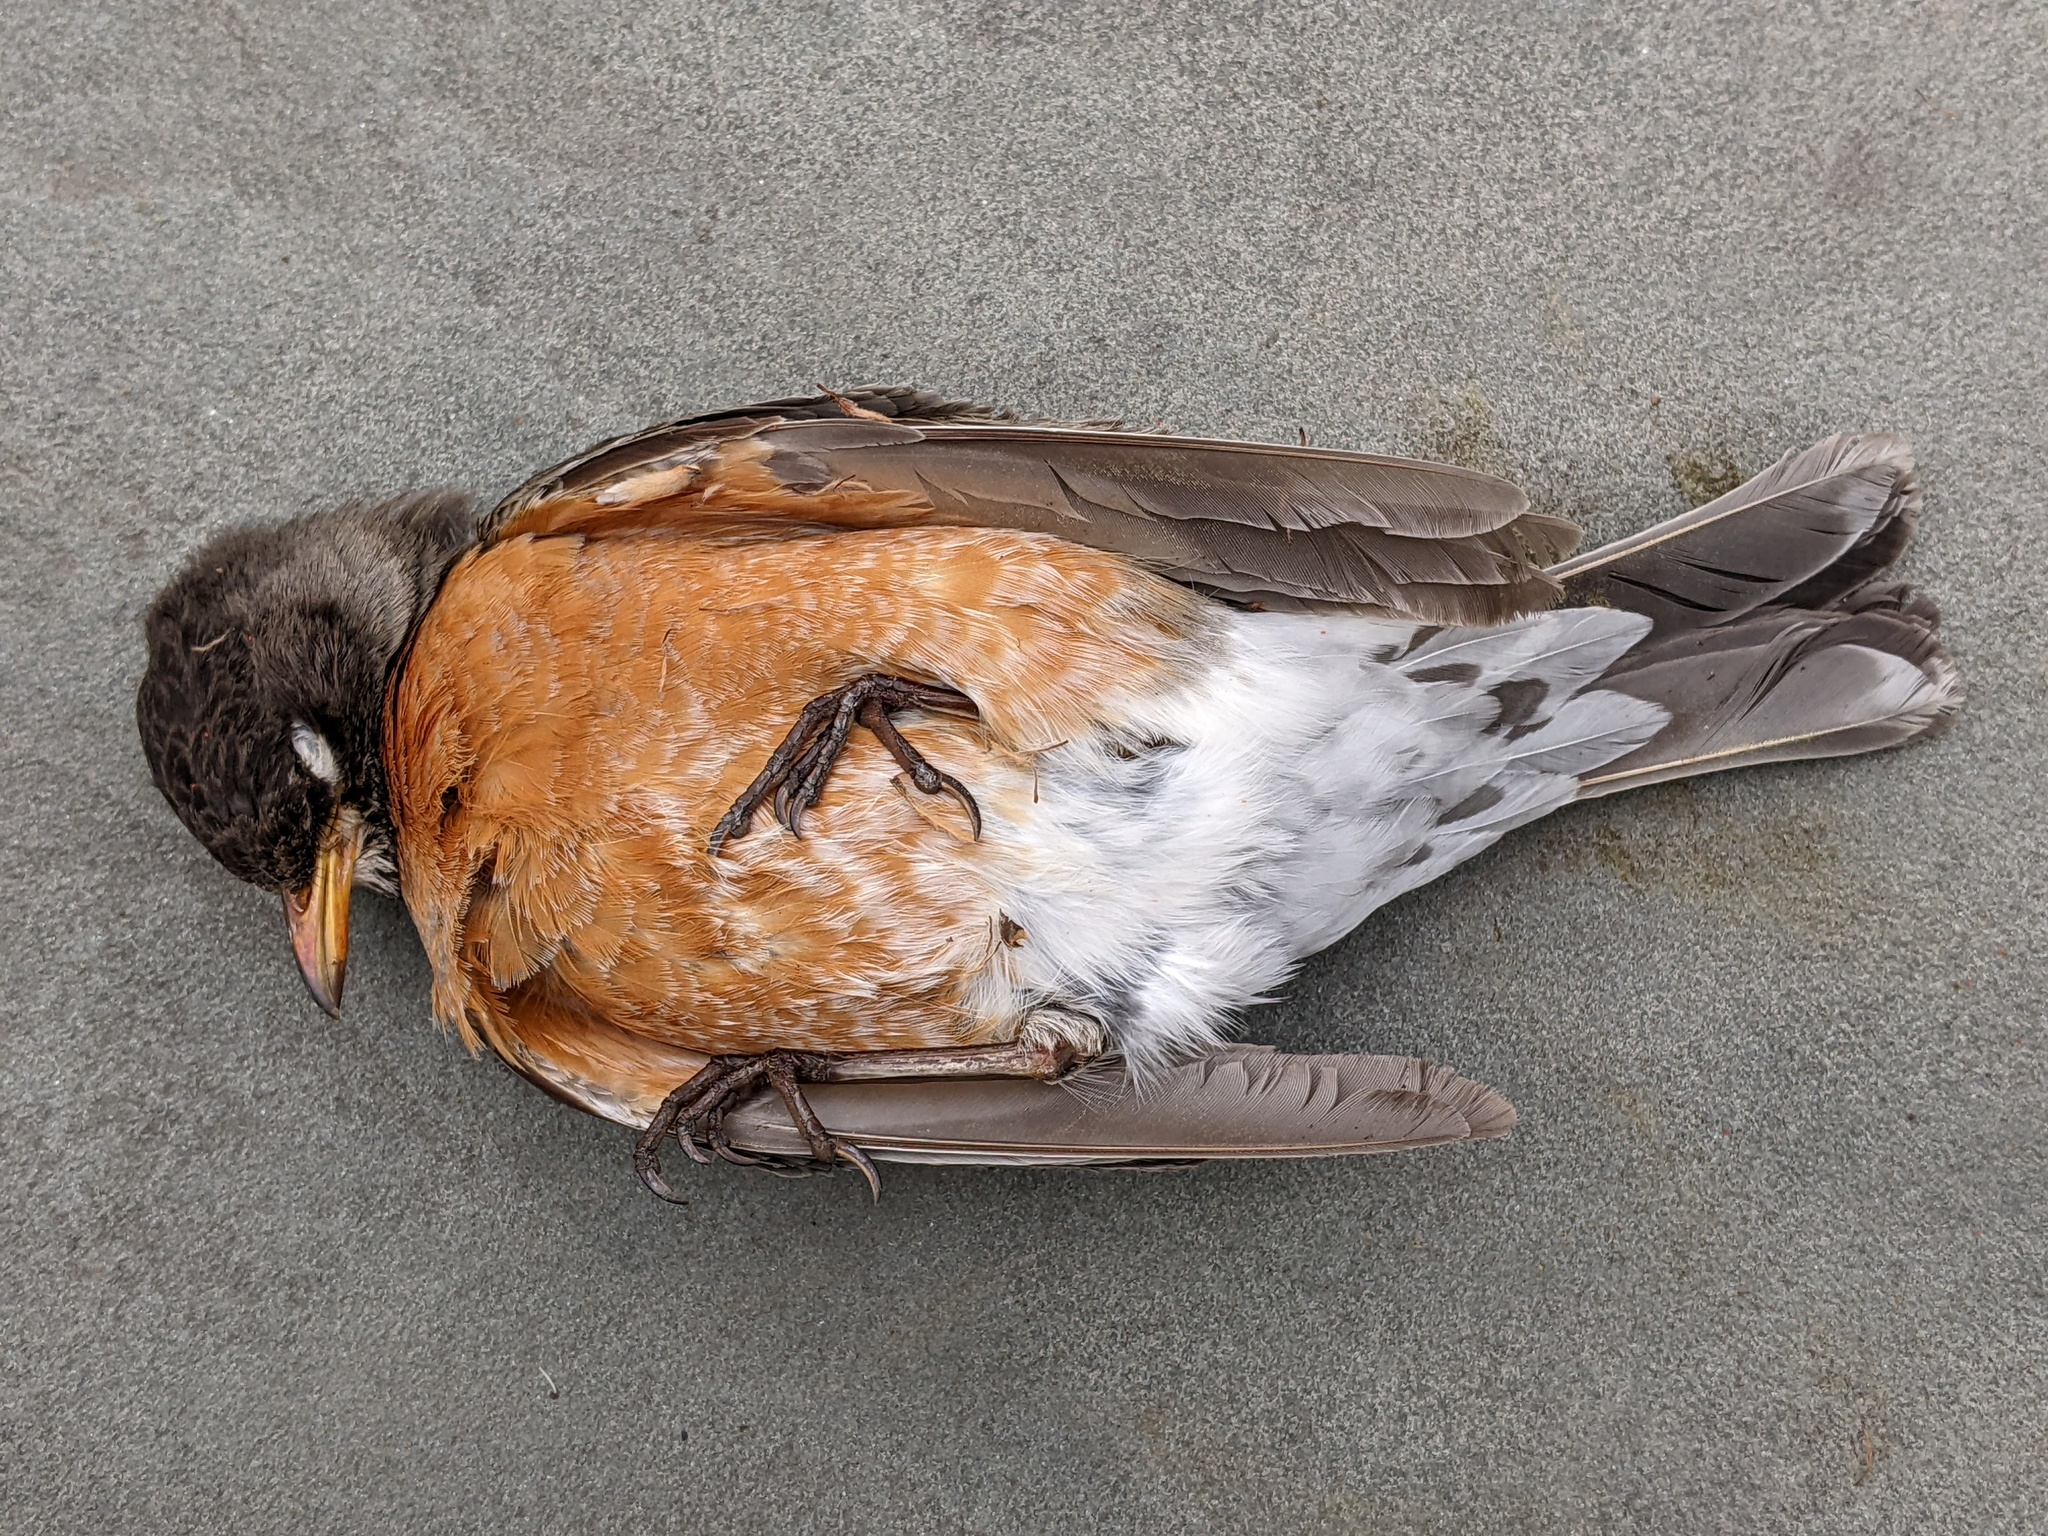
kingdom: Animalia
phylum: Chordata
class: Aves
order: Passeriformes
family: Turdidae
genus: Turdus
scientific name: Turdus migratorius
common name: American robin
